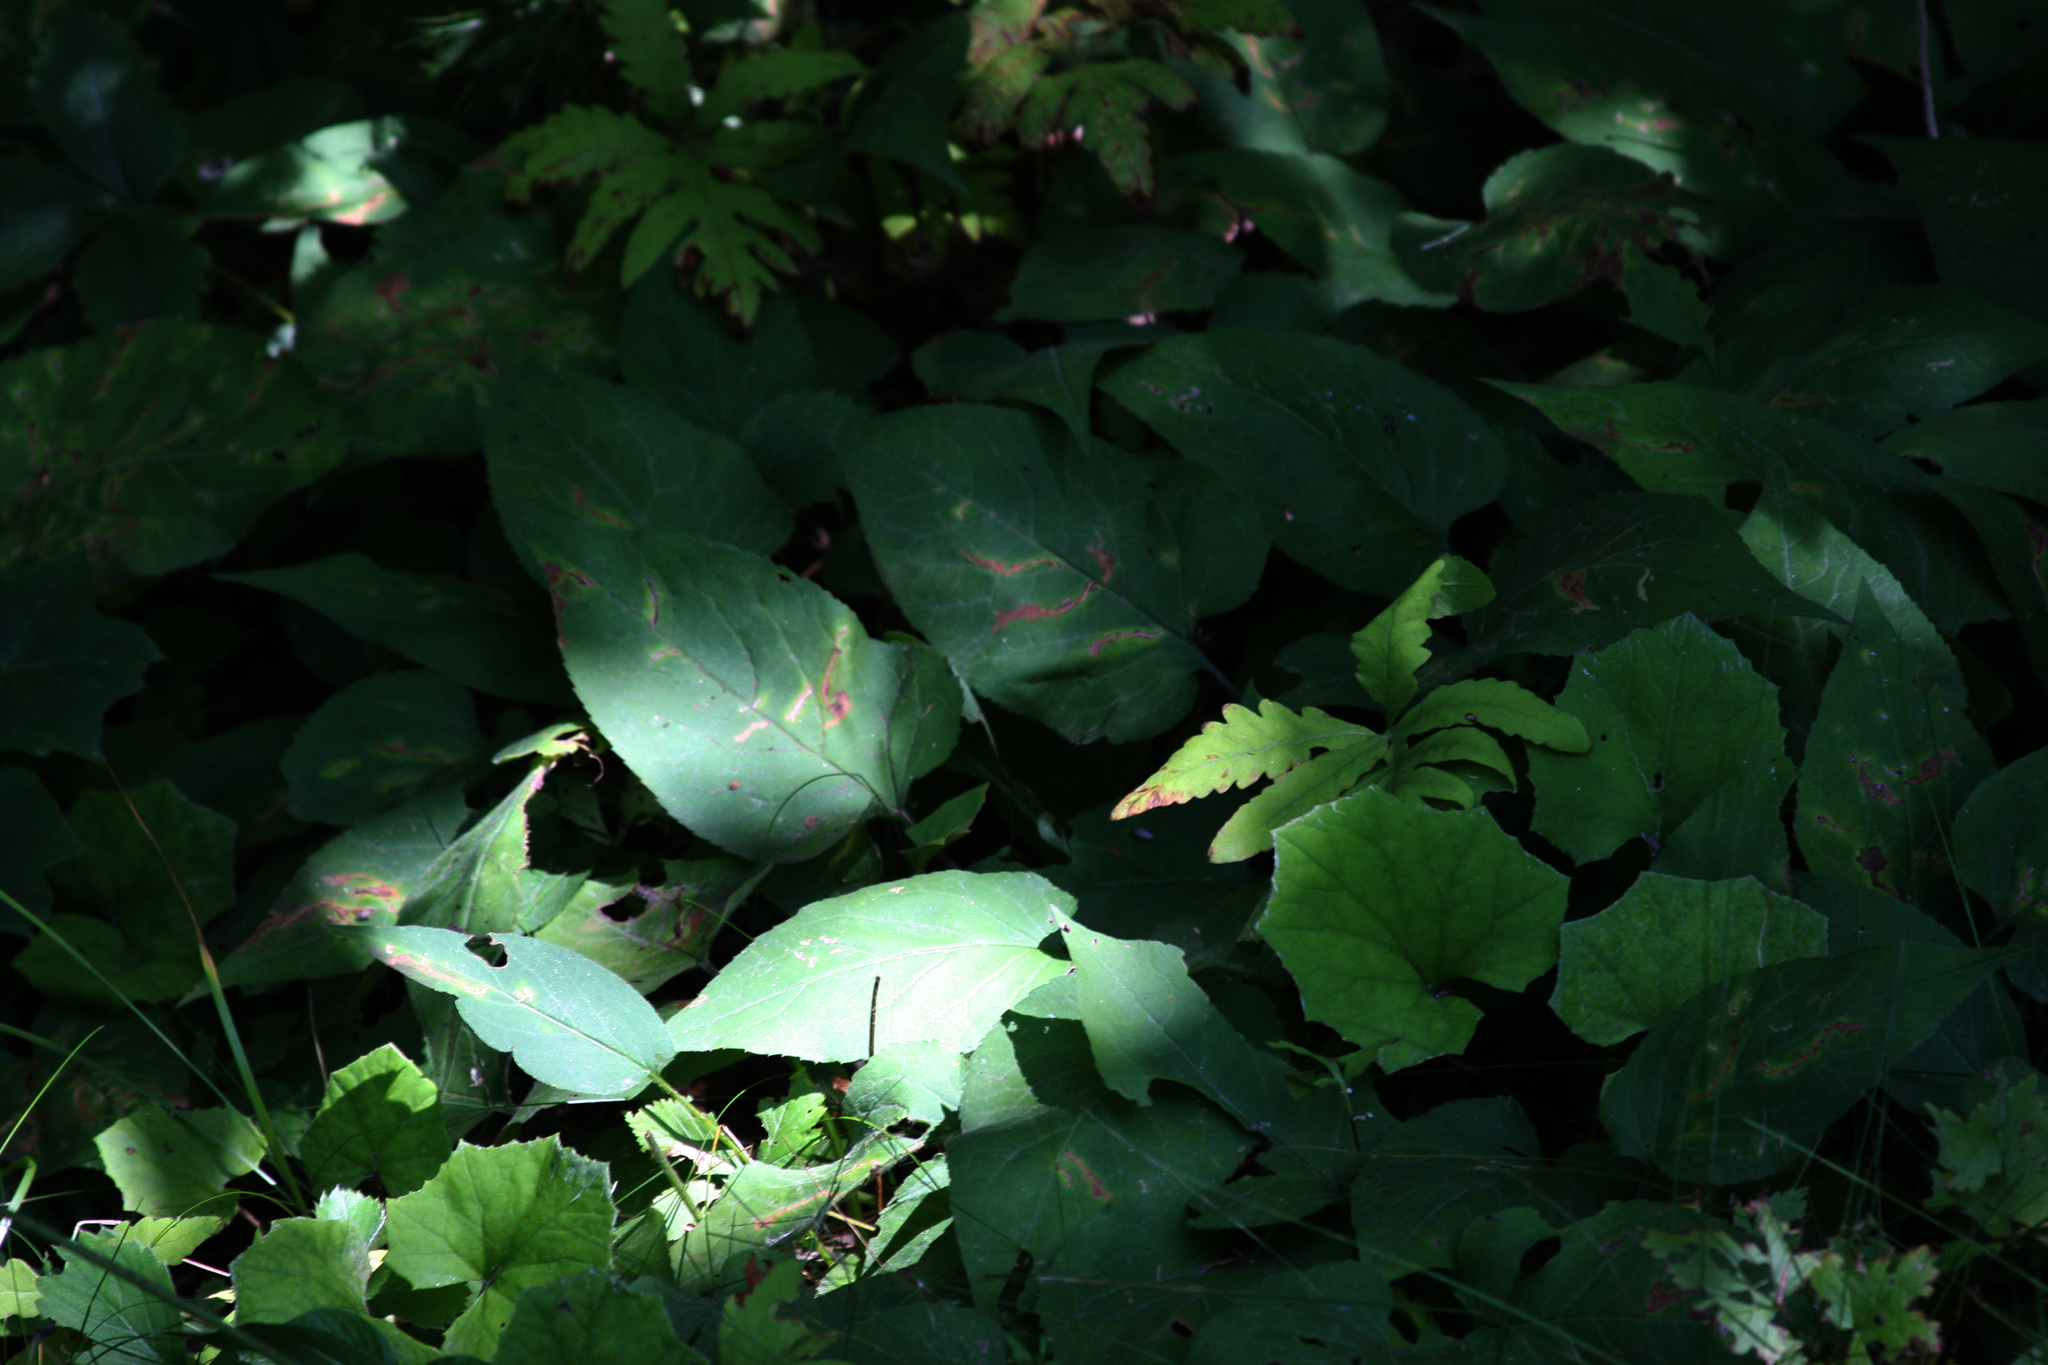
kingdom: Plantae
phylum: Tracheophyta
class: Magnoliopsida
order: Asterales
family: Asteraceae
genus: Tussilago
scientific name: Tussilago farfara
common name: Coltsfoot
